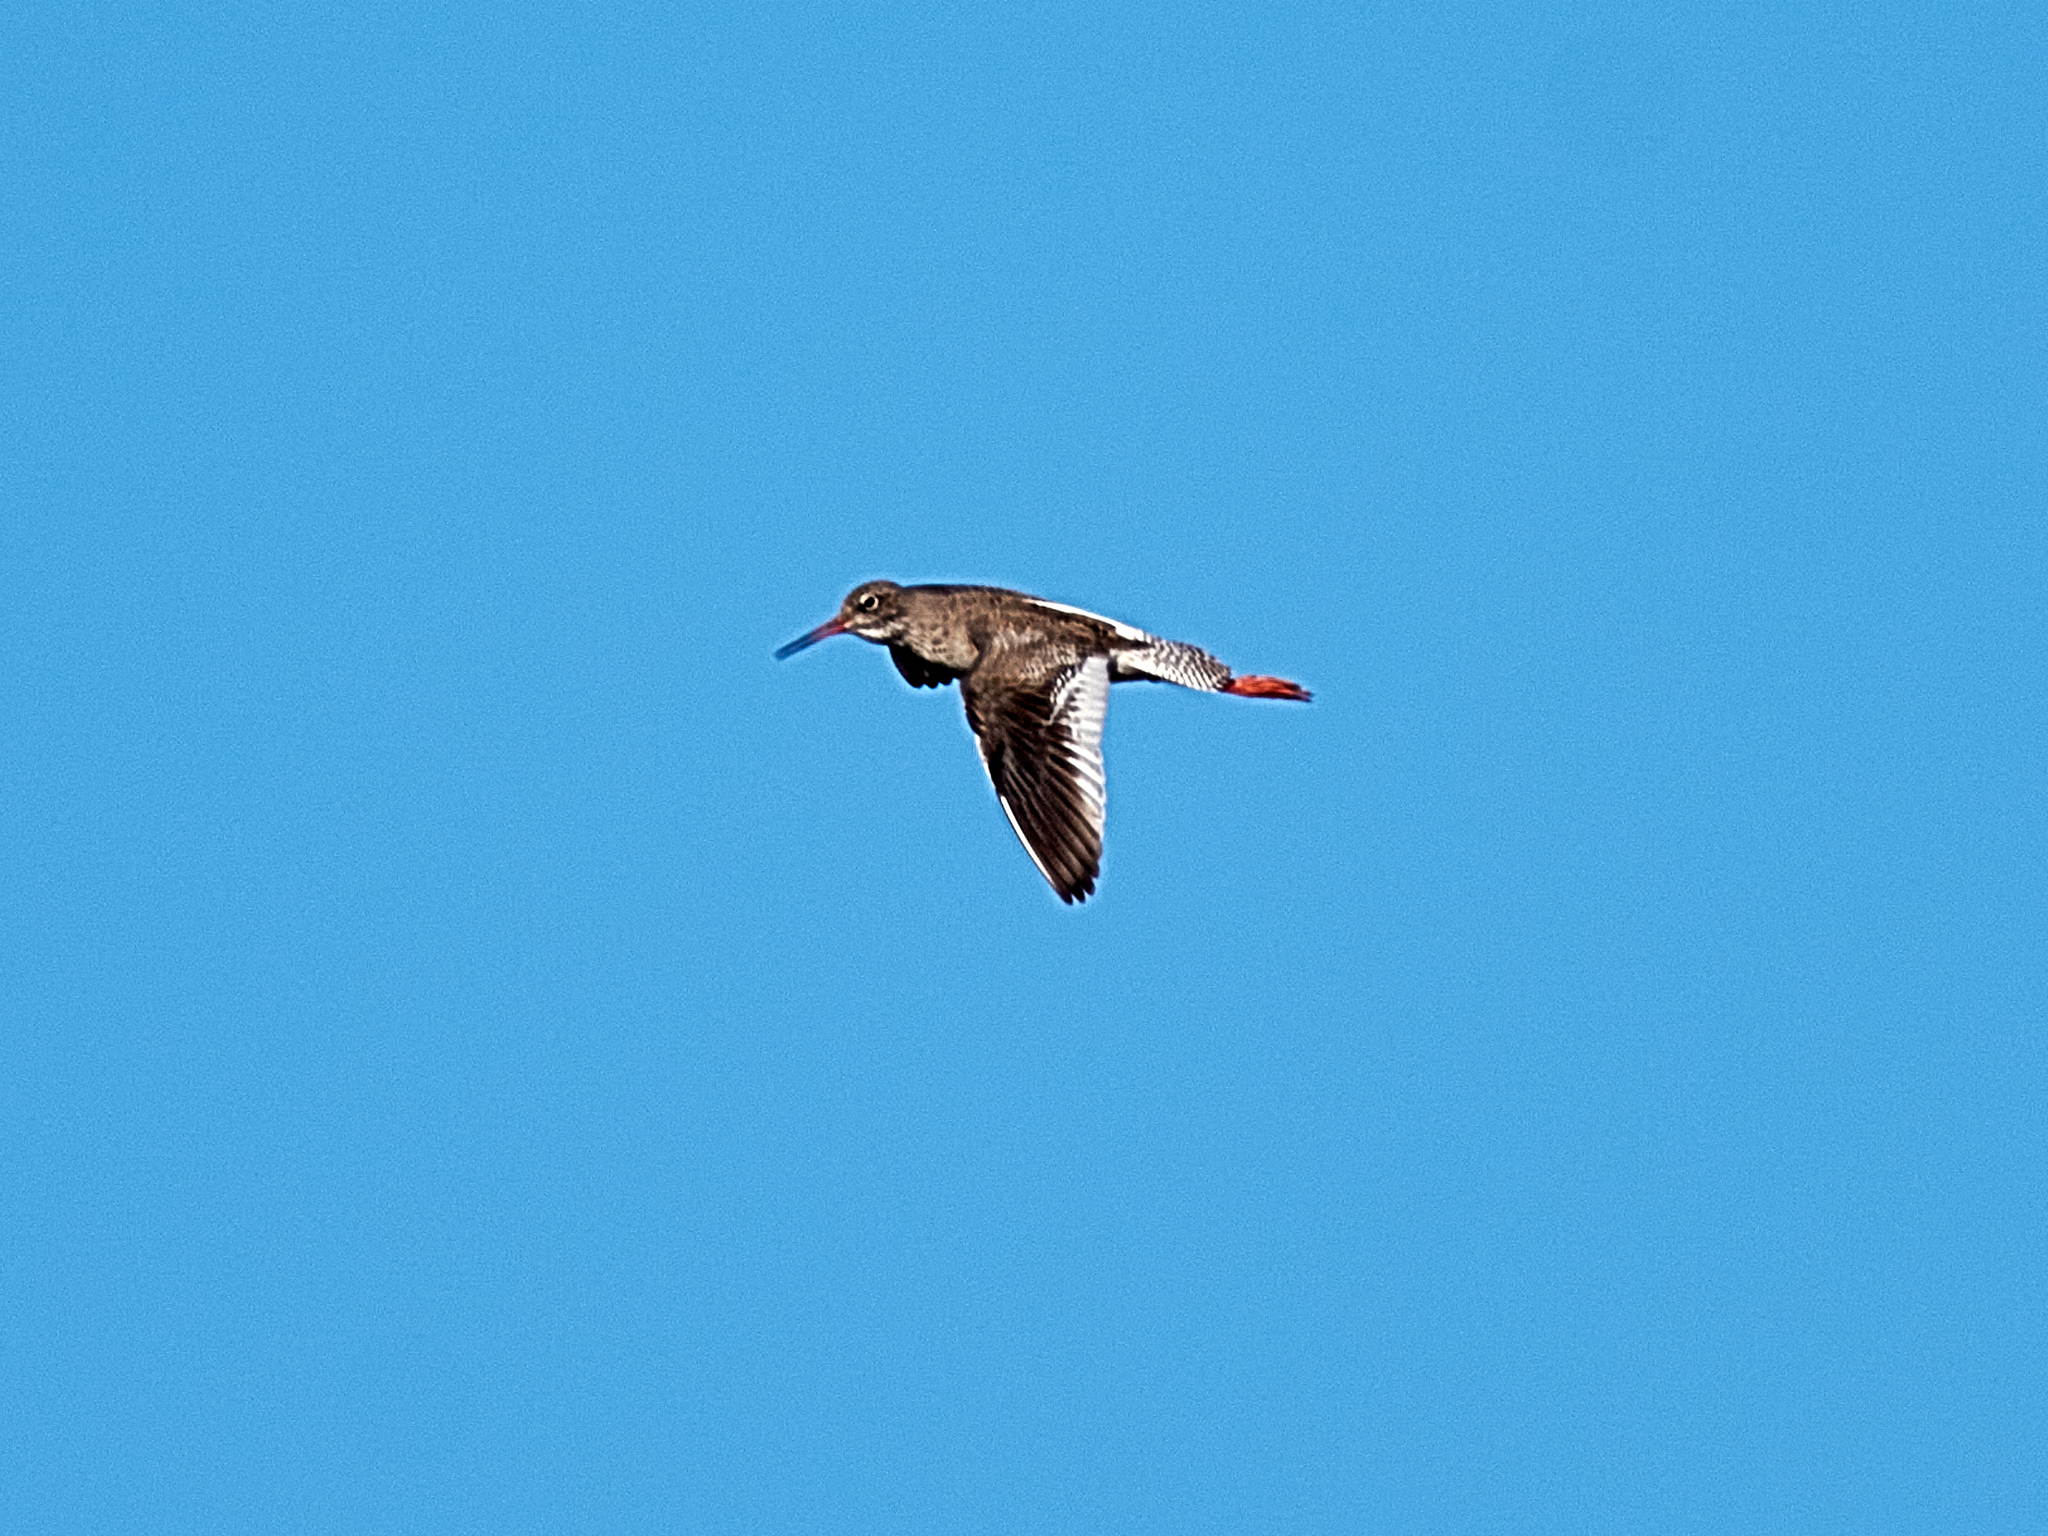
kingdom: Animalia
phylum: Chordata
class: Aves
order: Charadriiformes
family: Scolopacidae
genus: Tringa
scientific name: Tringa totanus
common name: Common redshank
